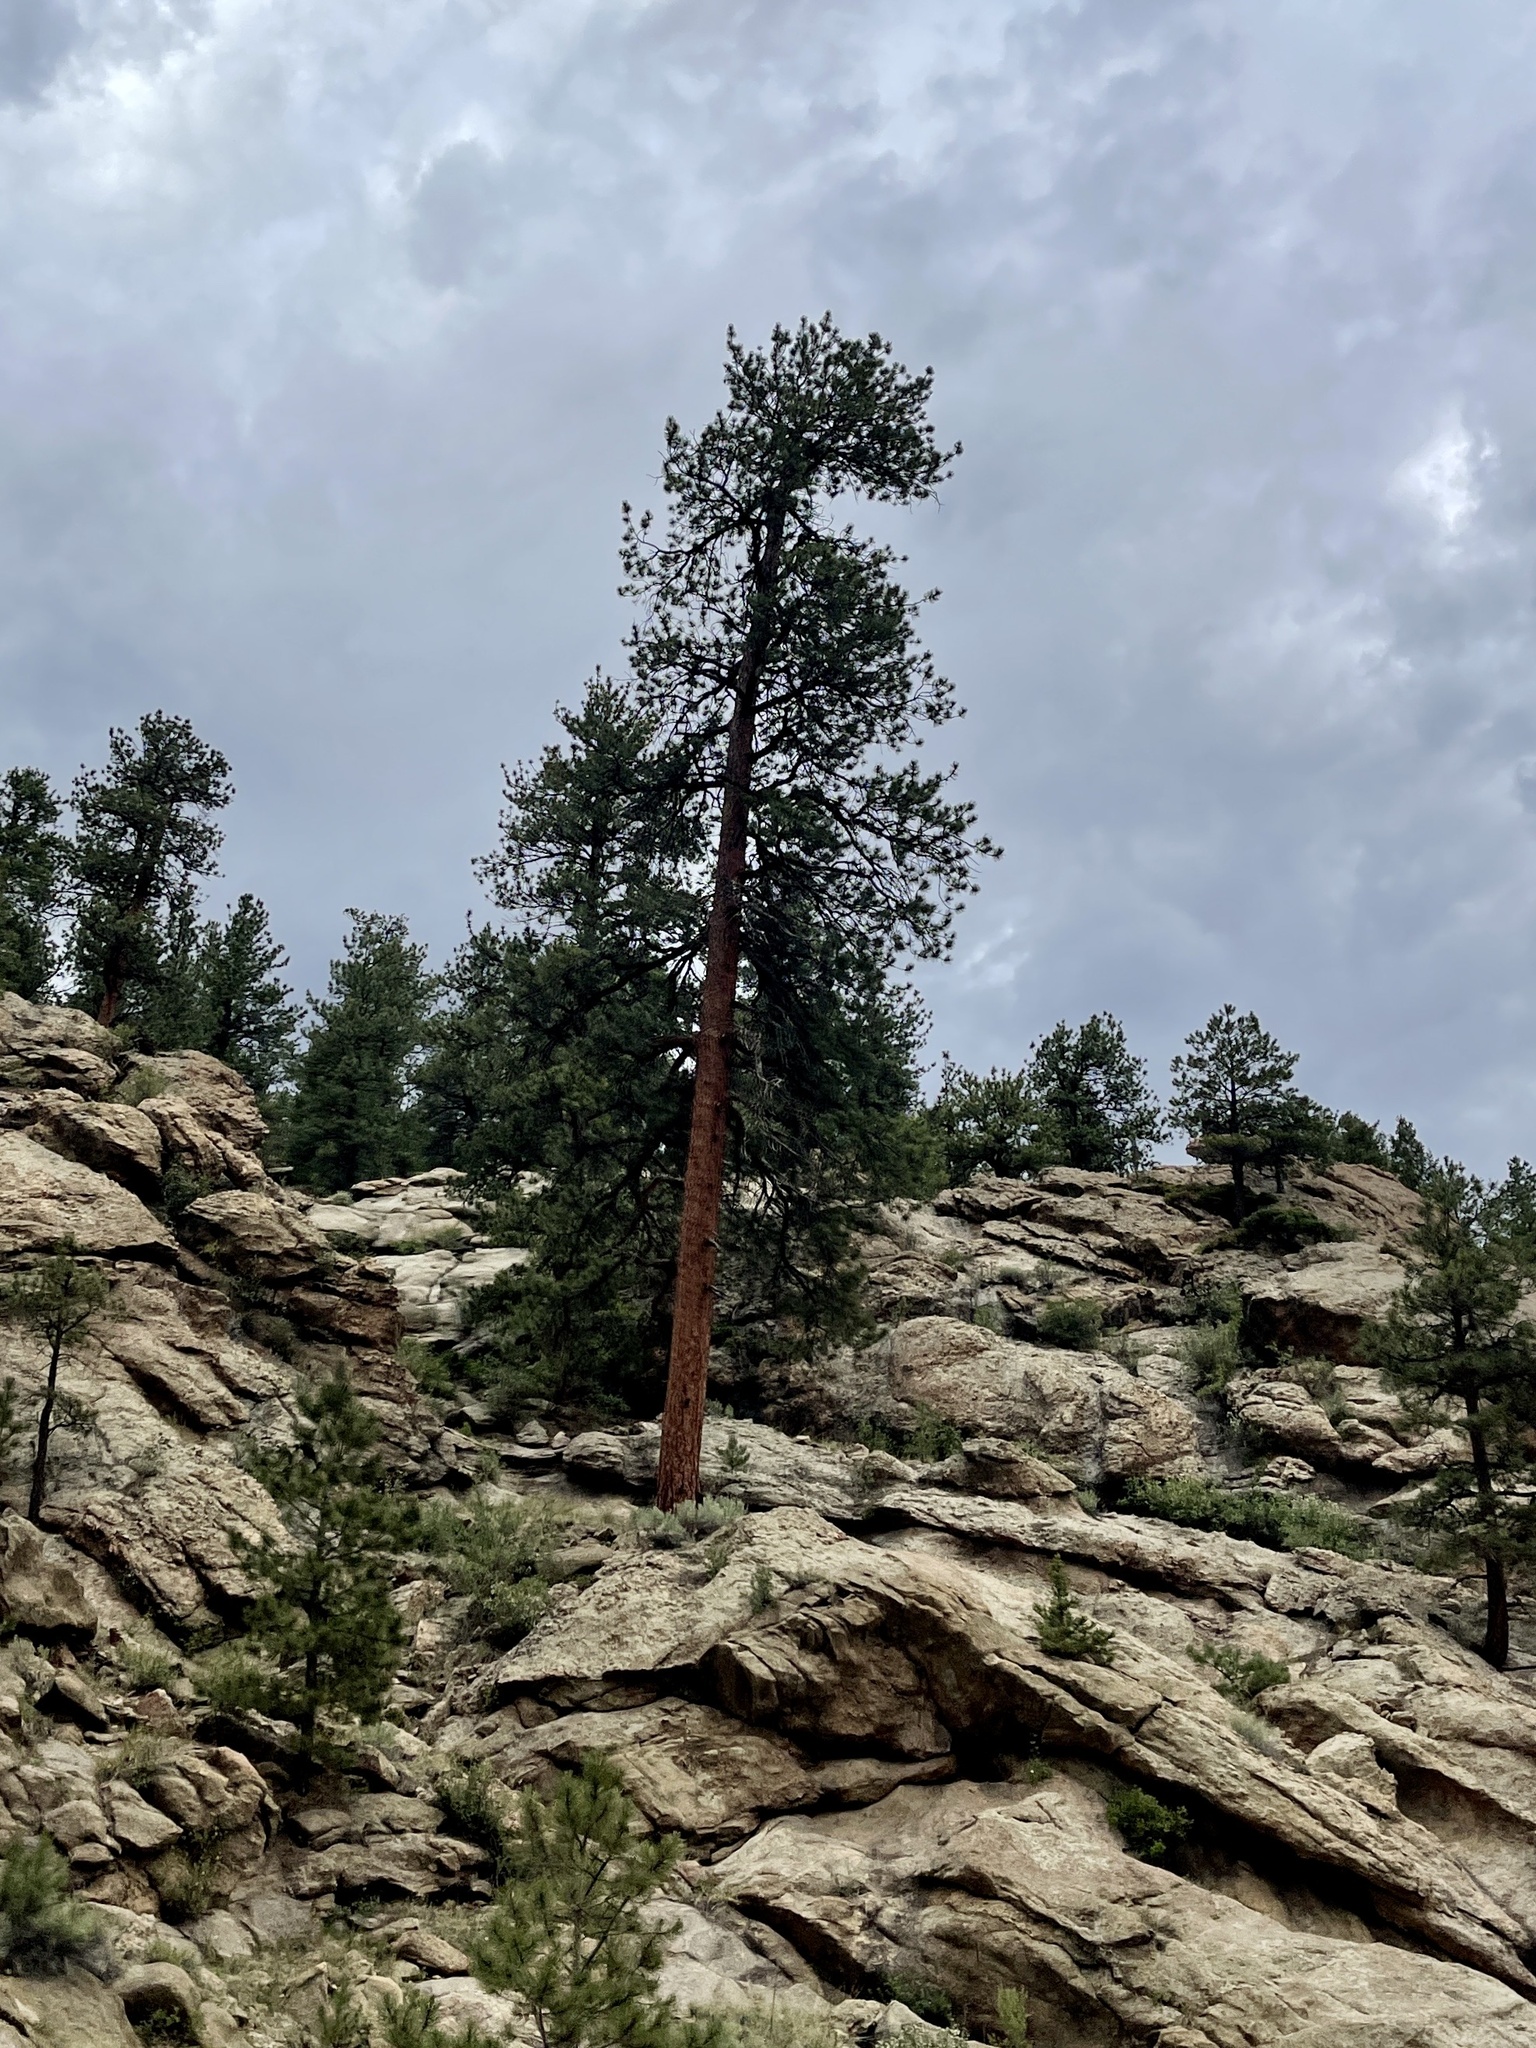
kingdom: Plantae
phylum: Tracheophyta
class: Pinopsida
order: Pinales
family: Pinaceae
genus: Pinus
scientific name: Pinus ponderosa
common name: Western yellow-pine
